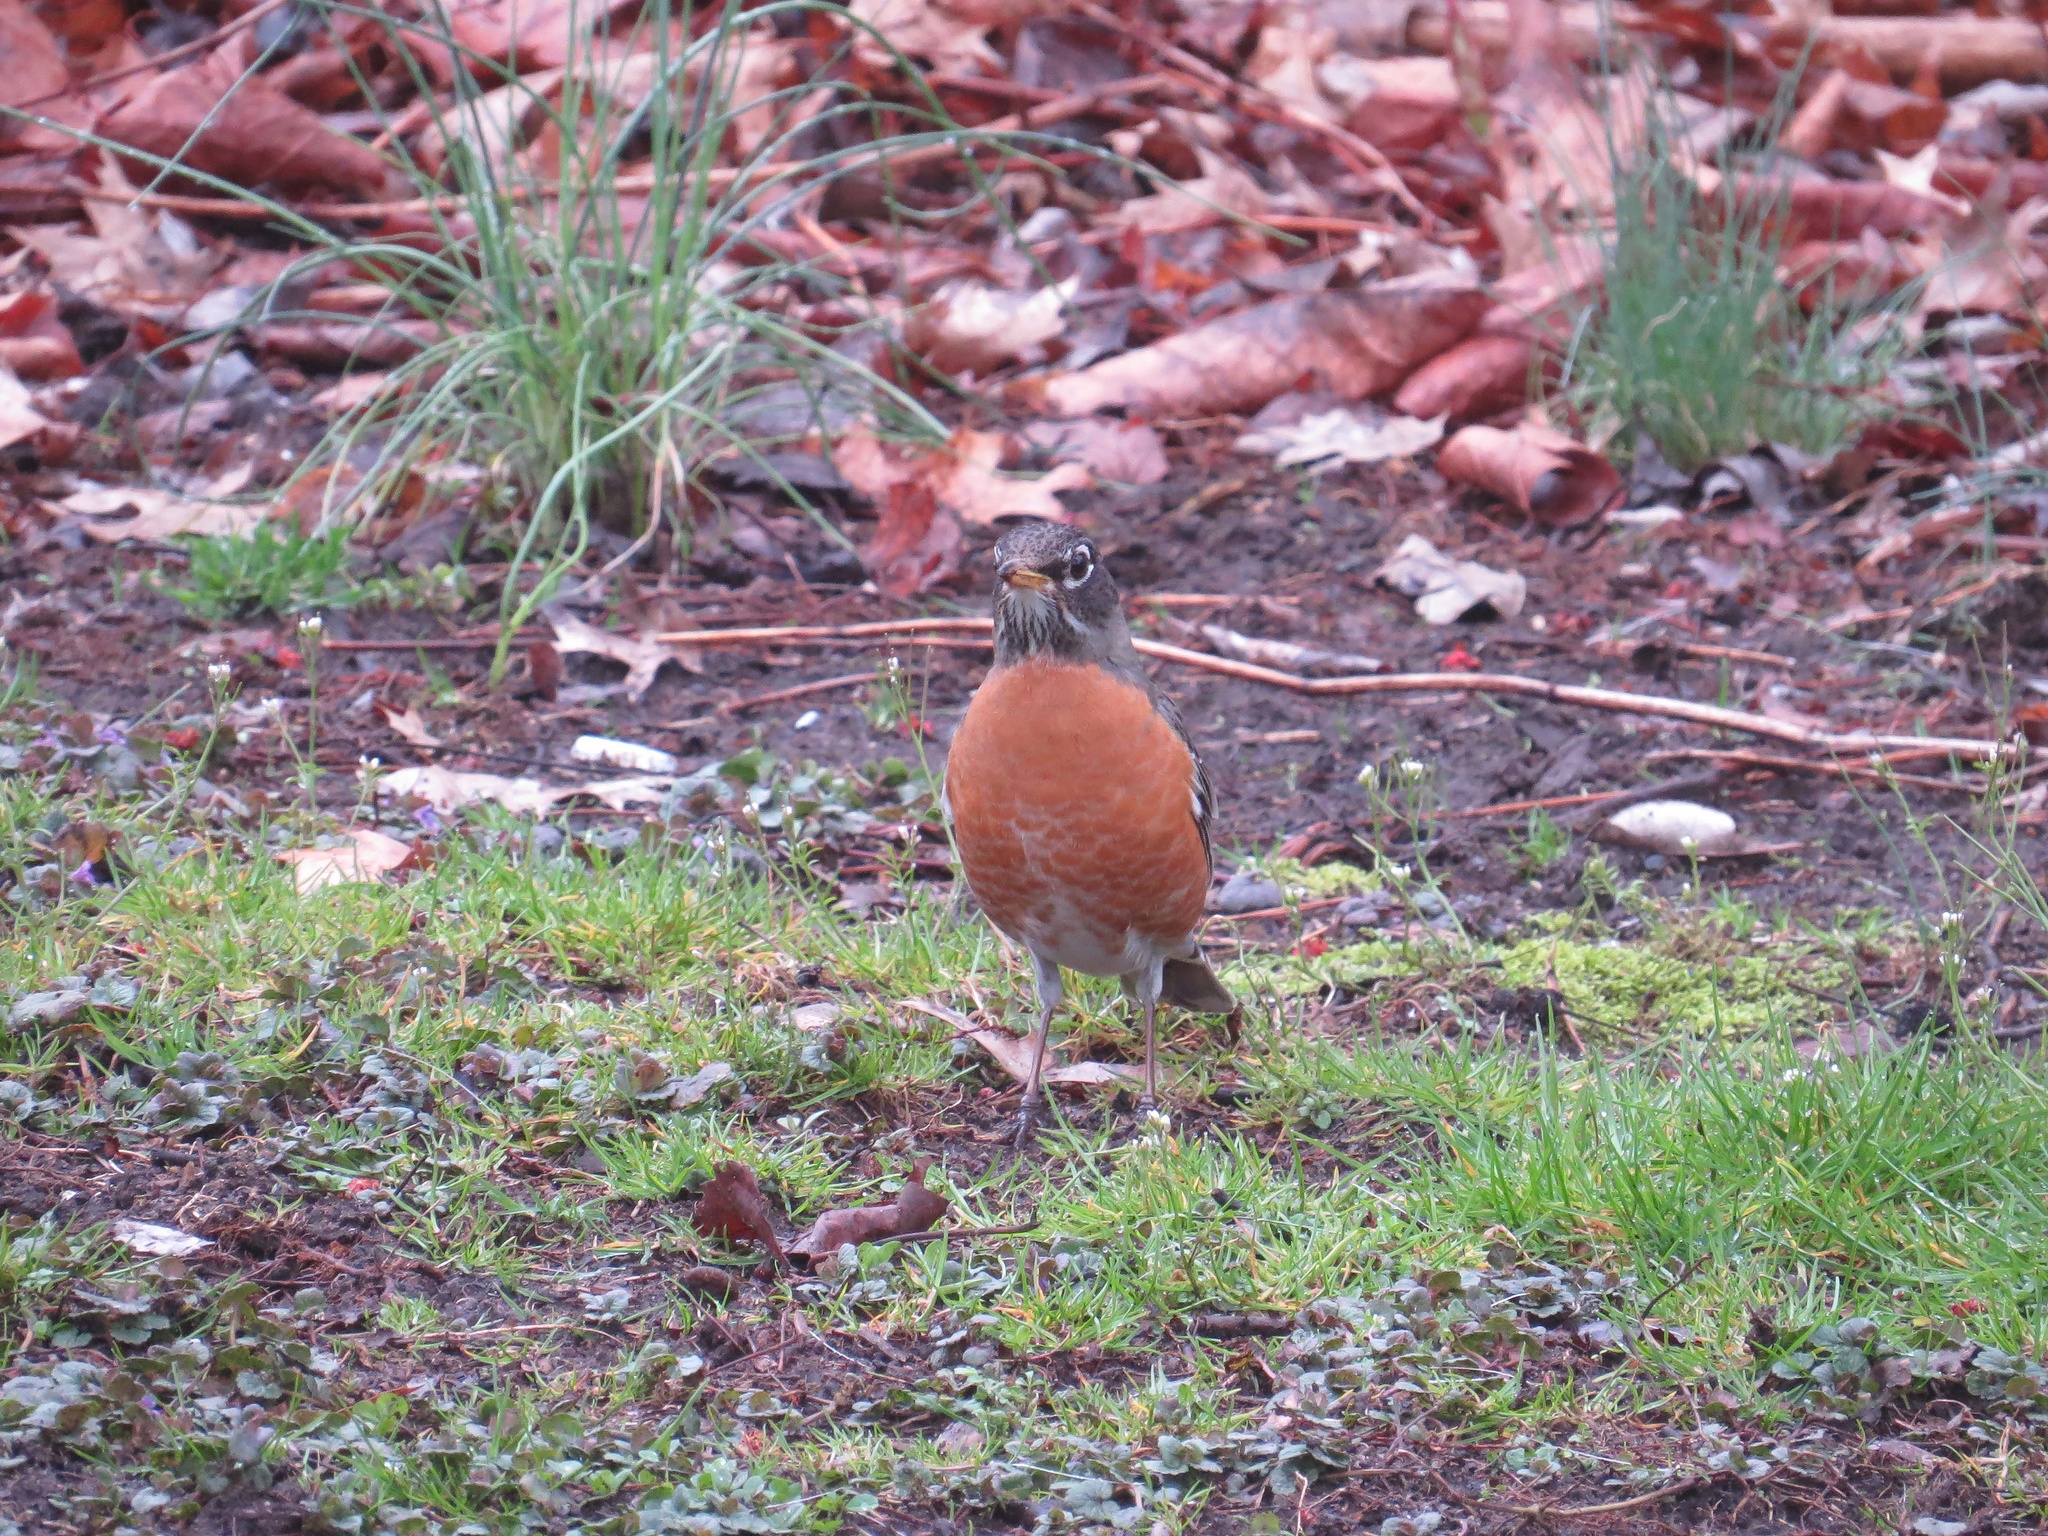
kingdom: Animalia
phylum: Chordata
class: Aves
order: Passeriformes
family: Turdidae
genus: Turdus
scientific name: Turdus migratorius
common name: American robin
